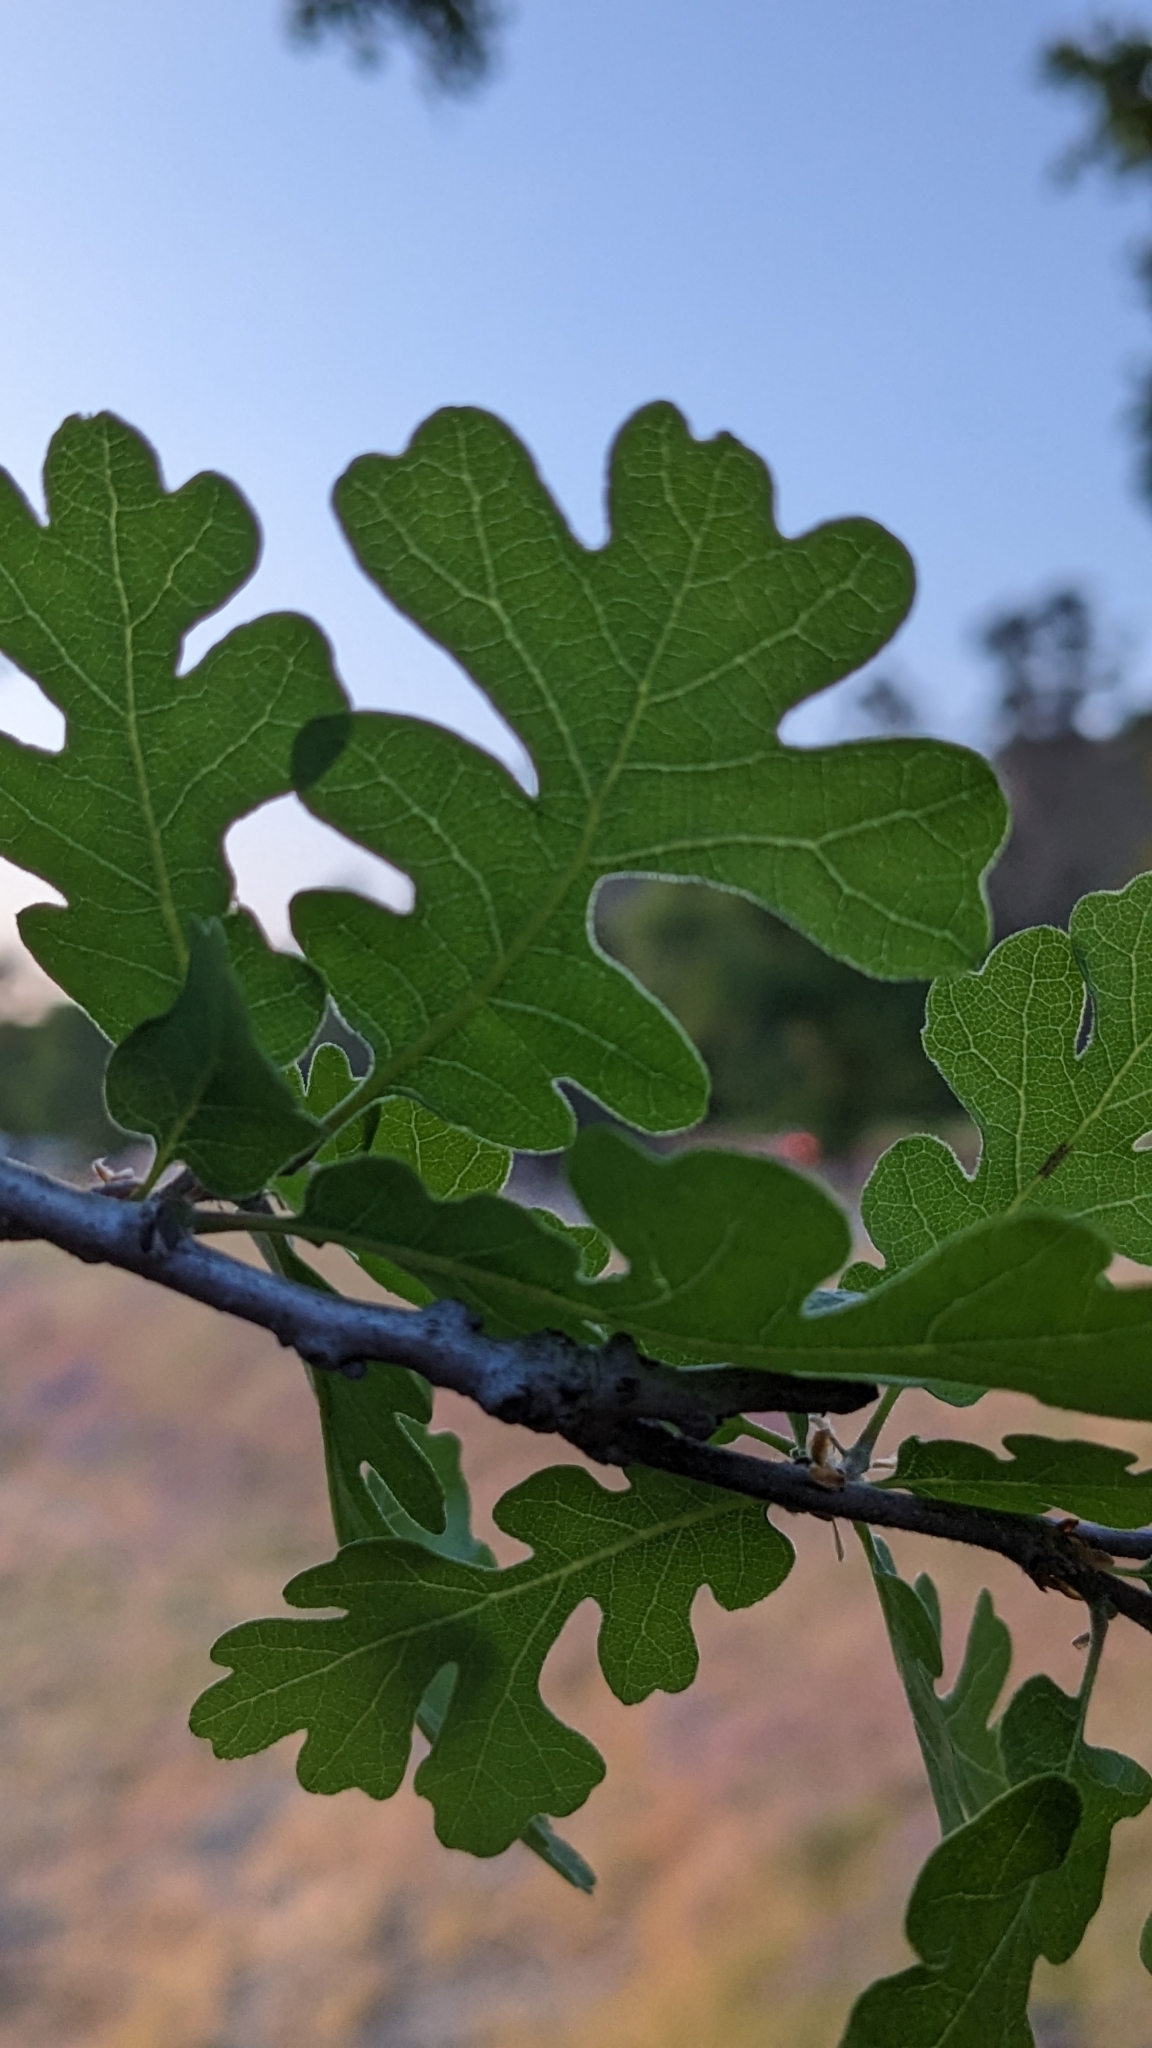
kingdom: Plantae
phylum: Tracheophyta
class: Magnoliopsida
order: Fagales
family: Fagaceae
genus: Quercus
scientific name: Quercus lobata
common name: Valley oak
